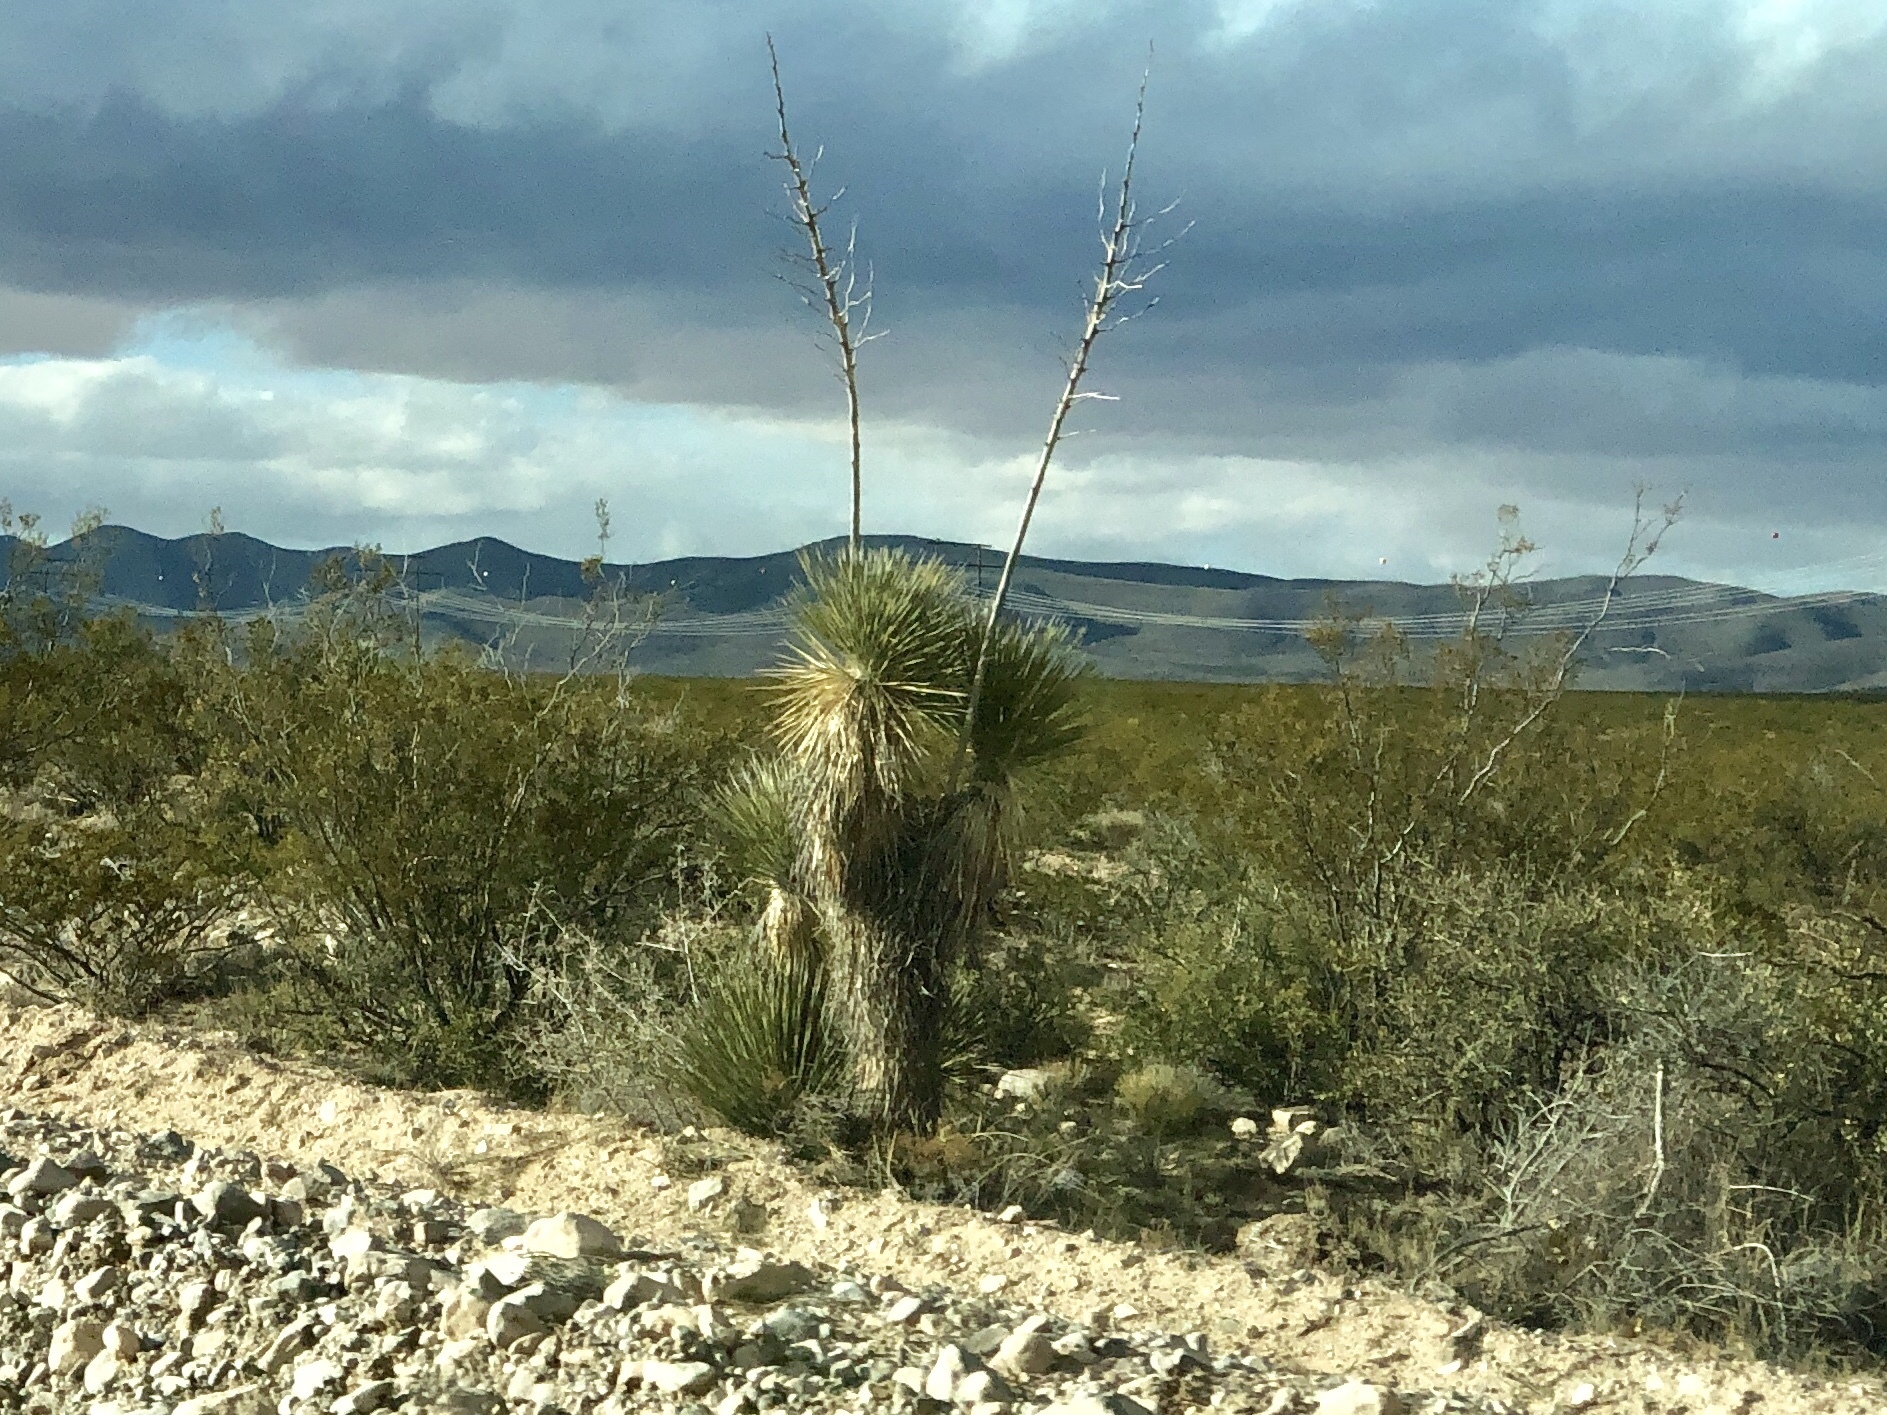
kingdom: Plantae
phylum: Tracheophyta
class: Liliopsida
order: Asparagales
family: Asparagaceae
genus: Yucca
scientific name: Yucca elata
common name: Palmella
